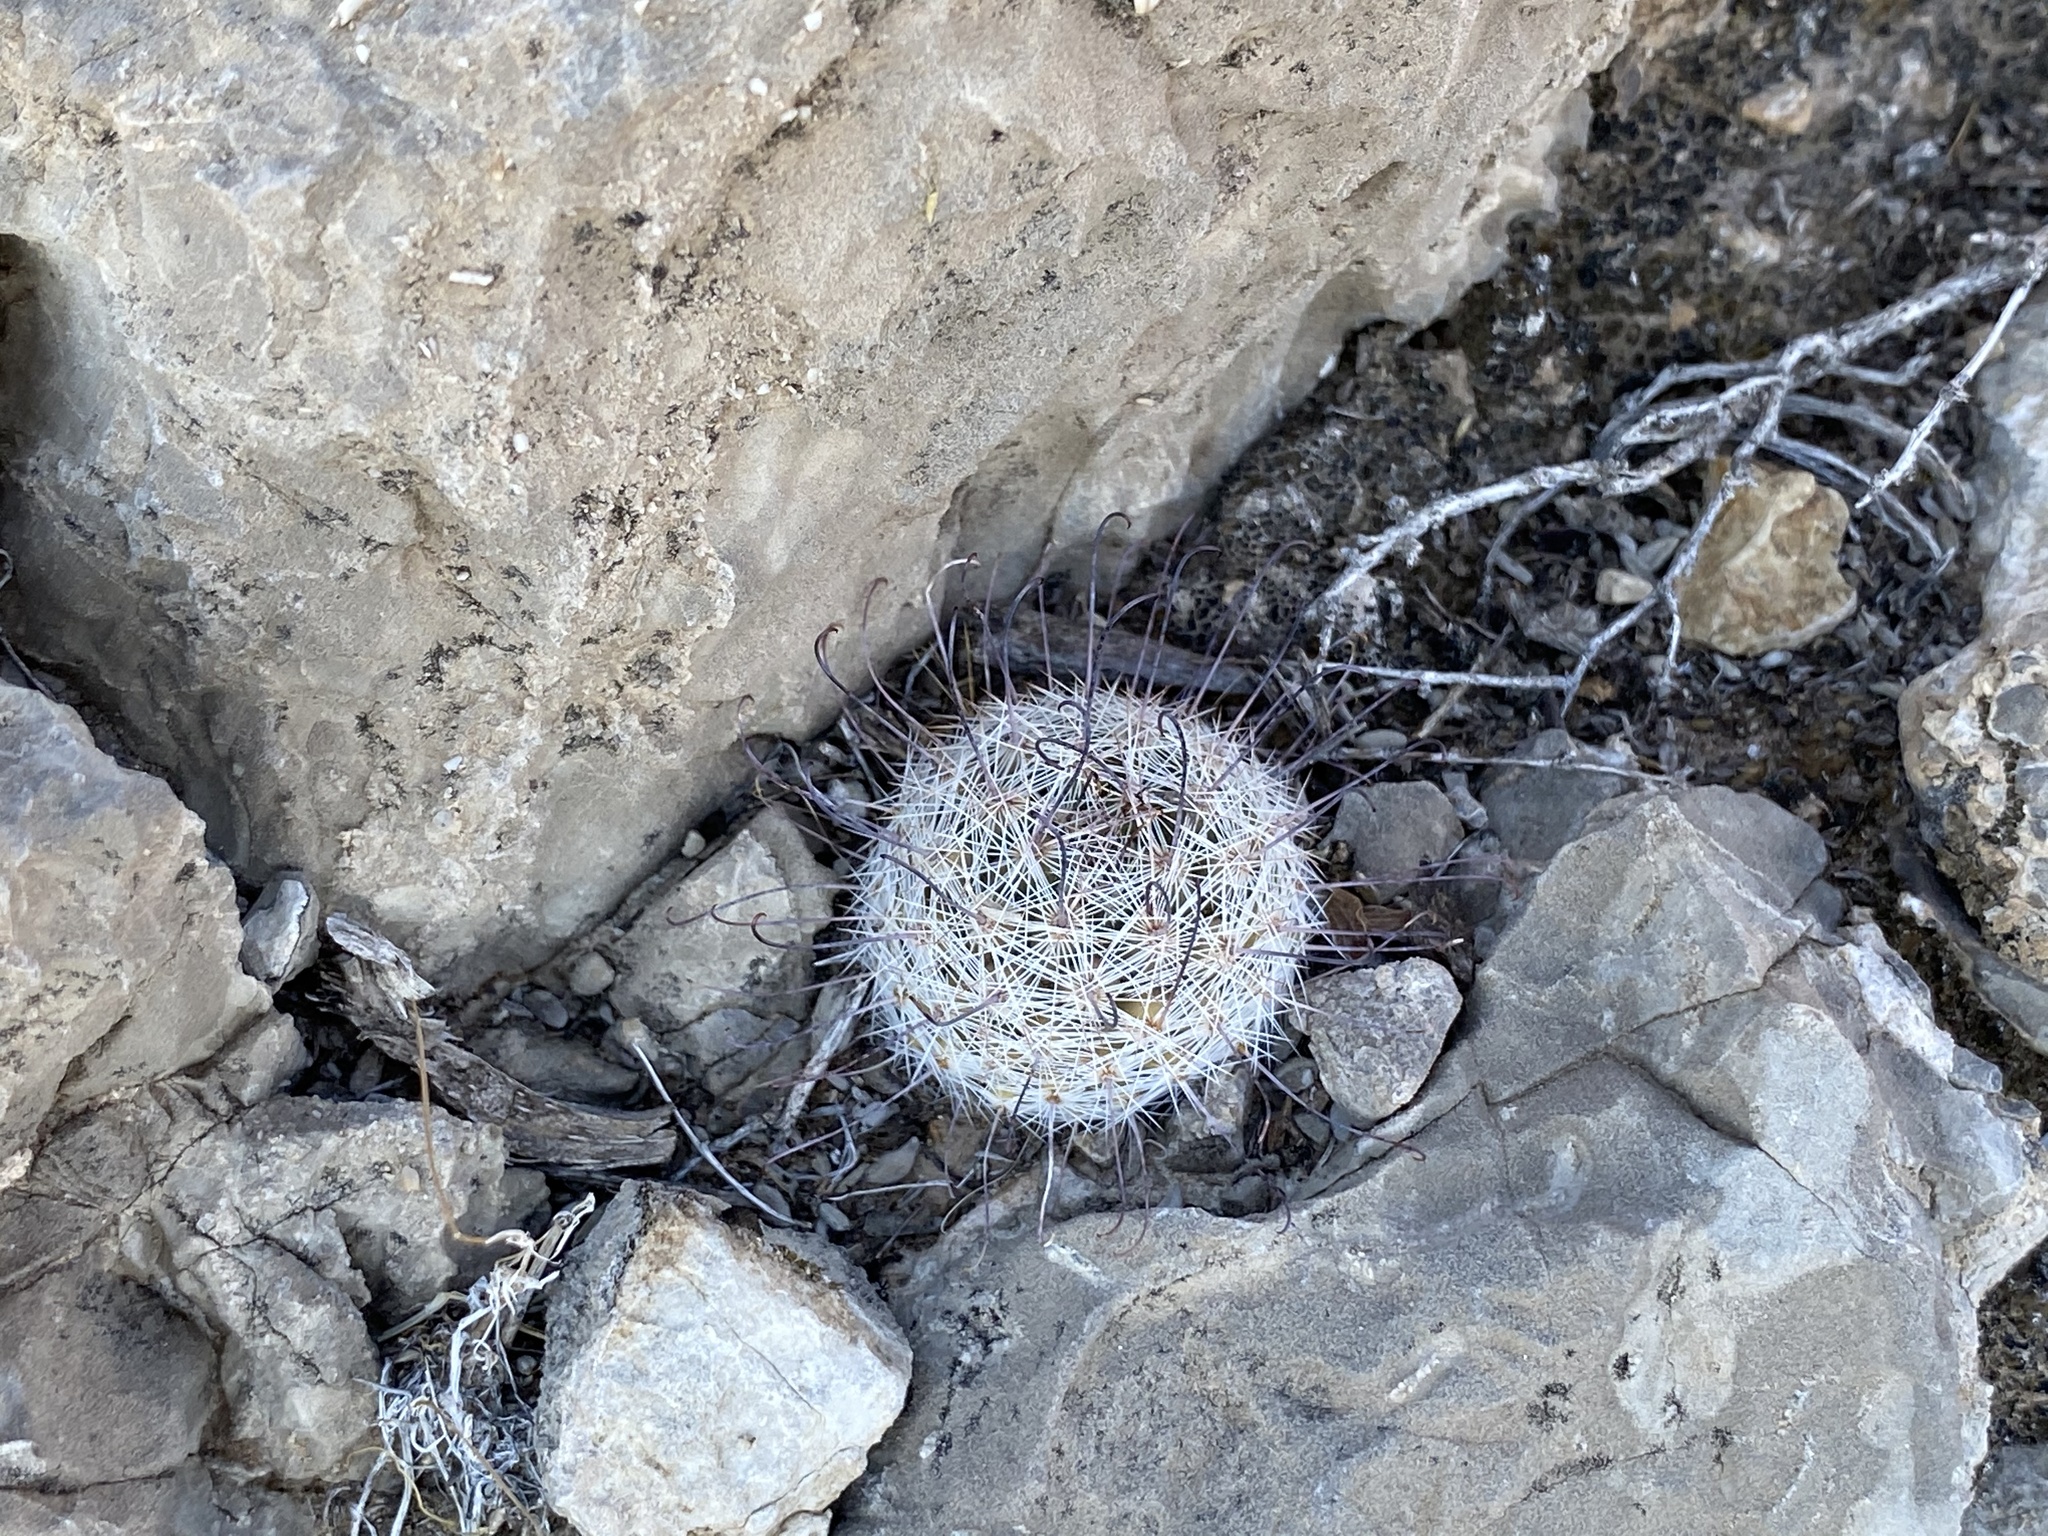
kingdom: Plantae
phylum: Tracheophyta
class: Magnoliopsida
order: Caryophyllales
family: Cactaceae
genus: Cochemiea
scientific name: Cochemiea grahamii
